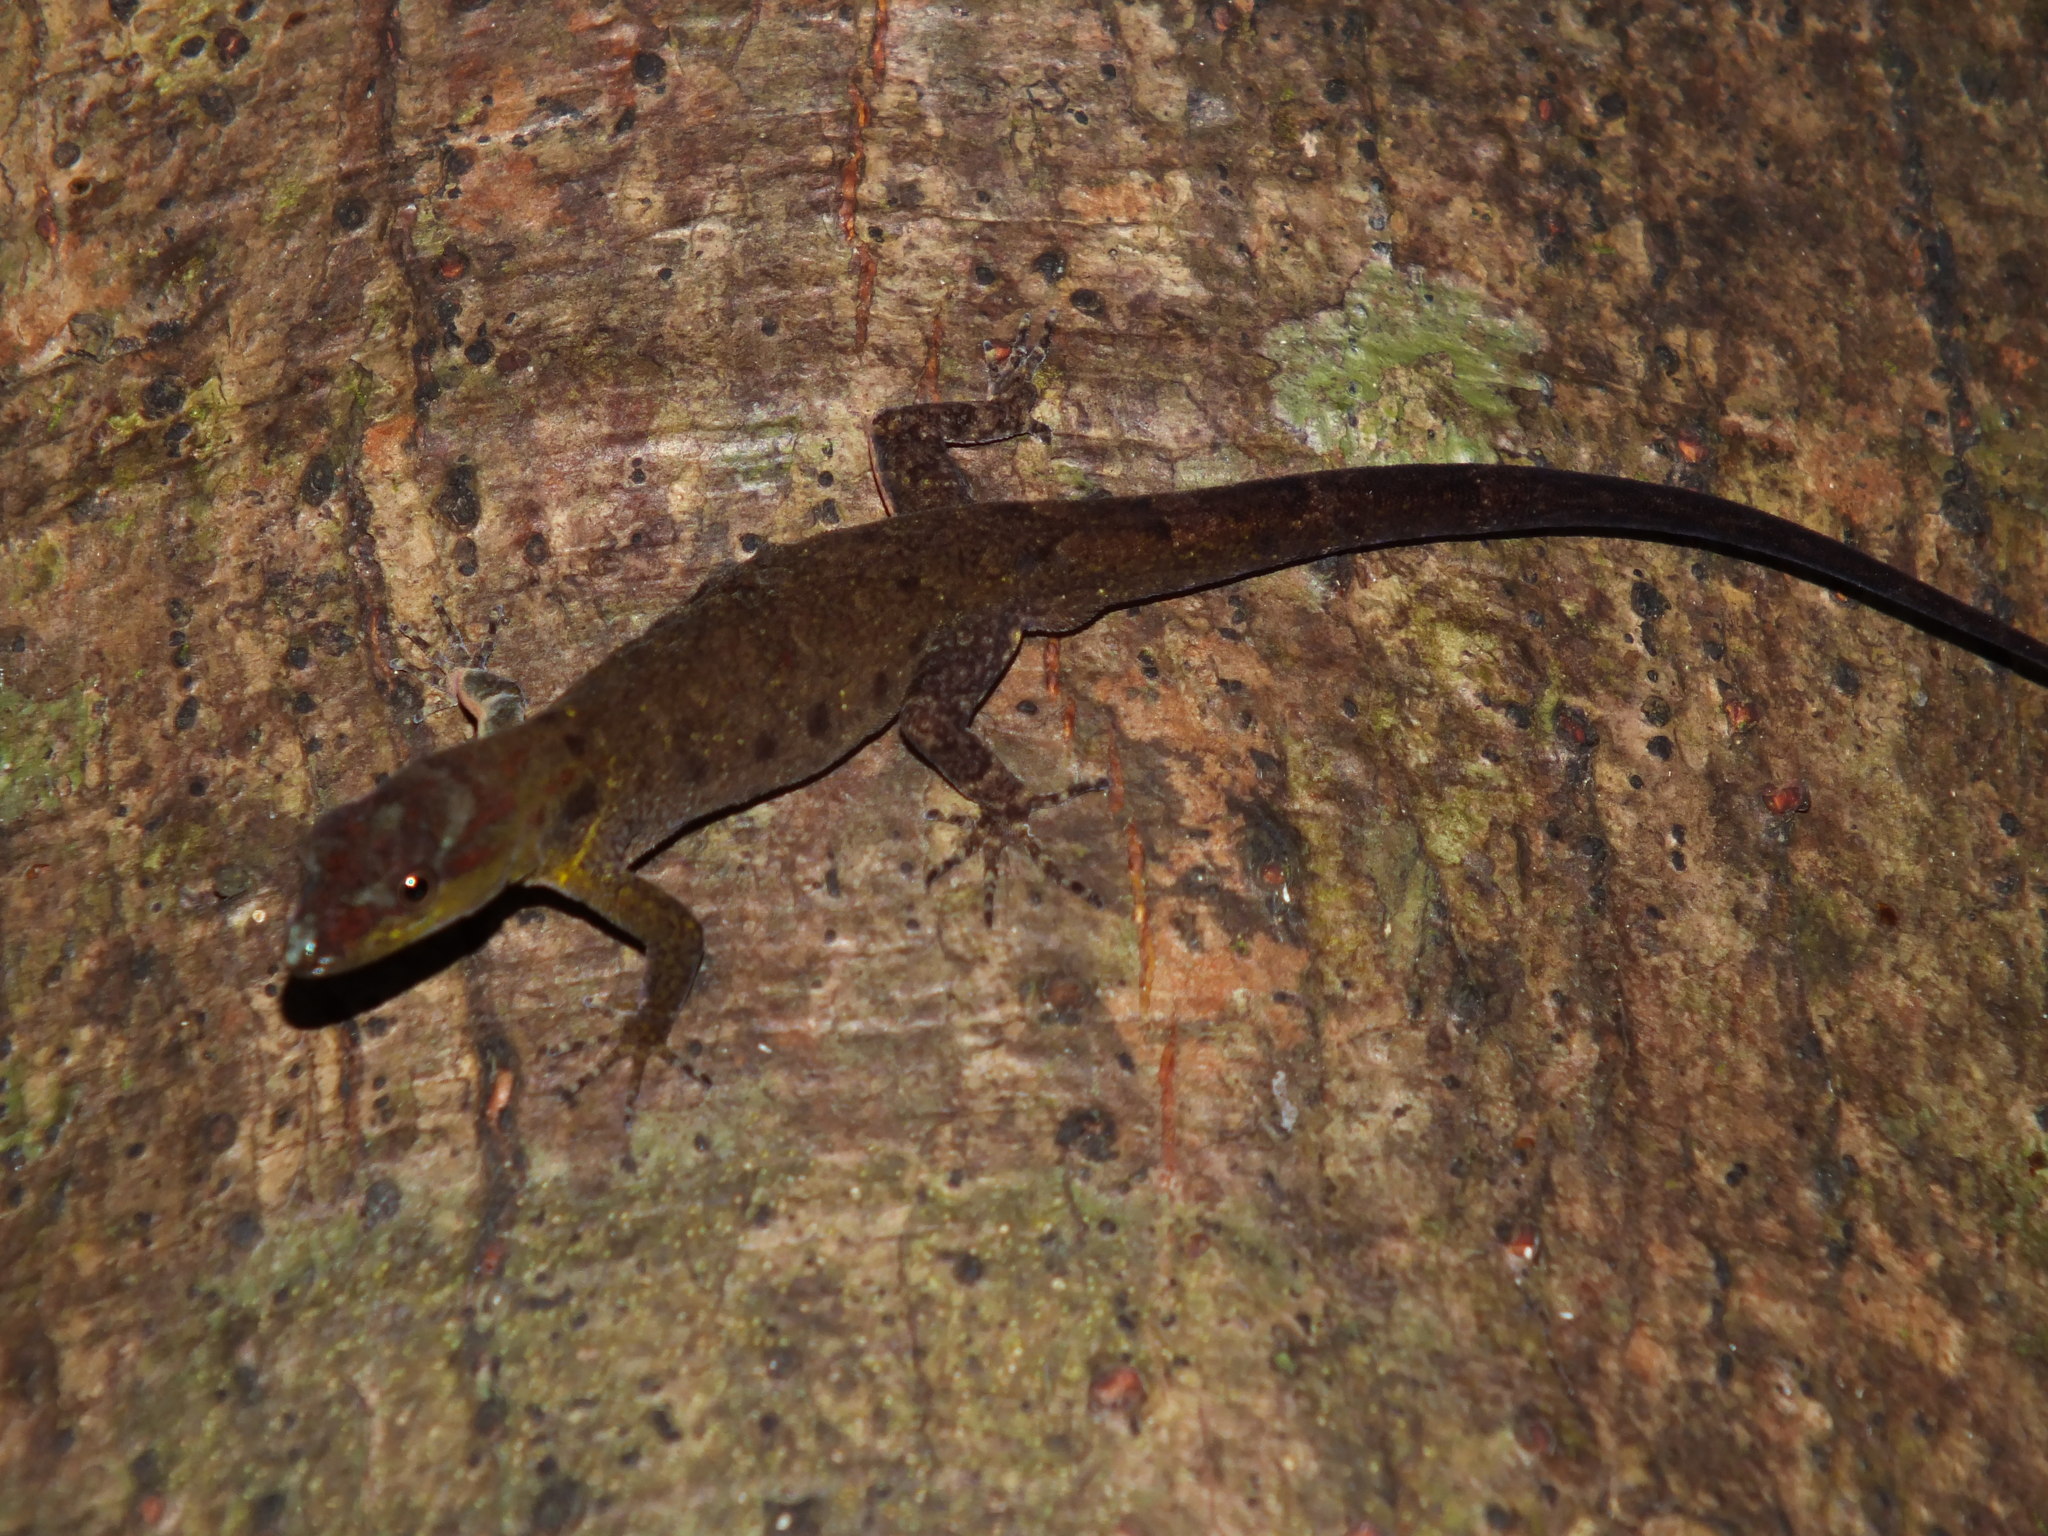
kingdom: Animalia
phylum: Chordata
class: Squamata
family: Sphaerodactylidae
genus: Gonatodes
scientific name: Gonatodes humeralis
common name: South american clawed gecko
